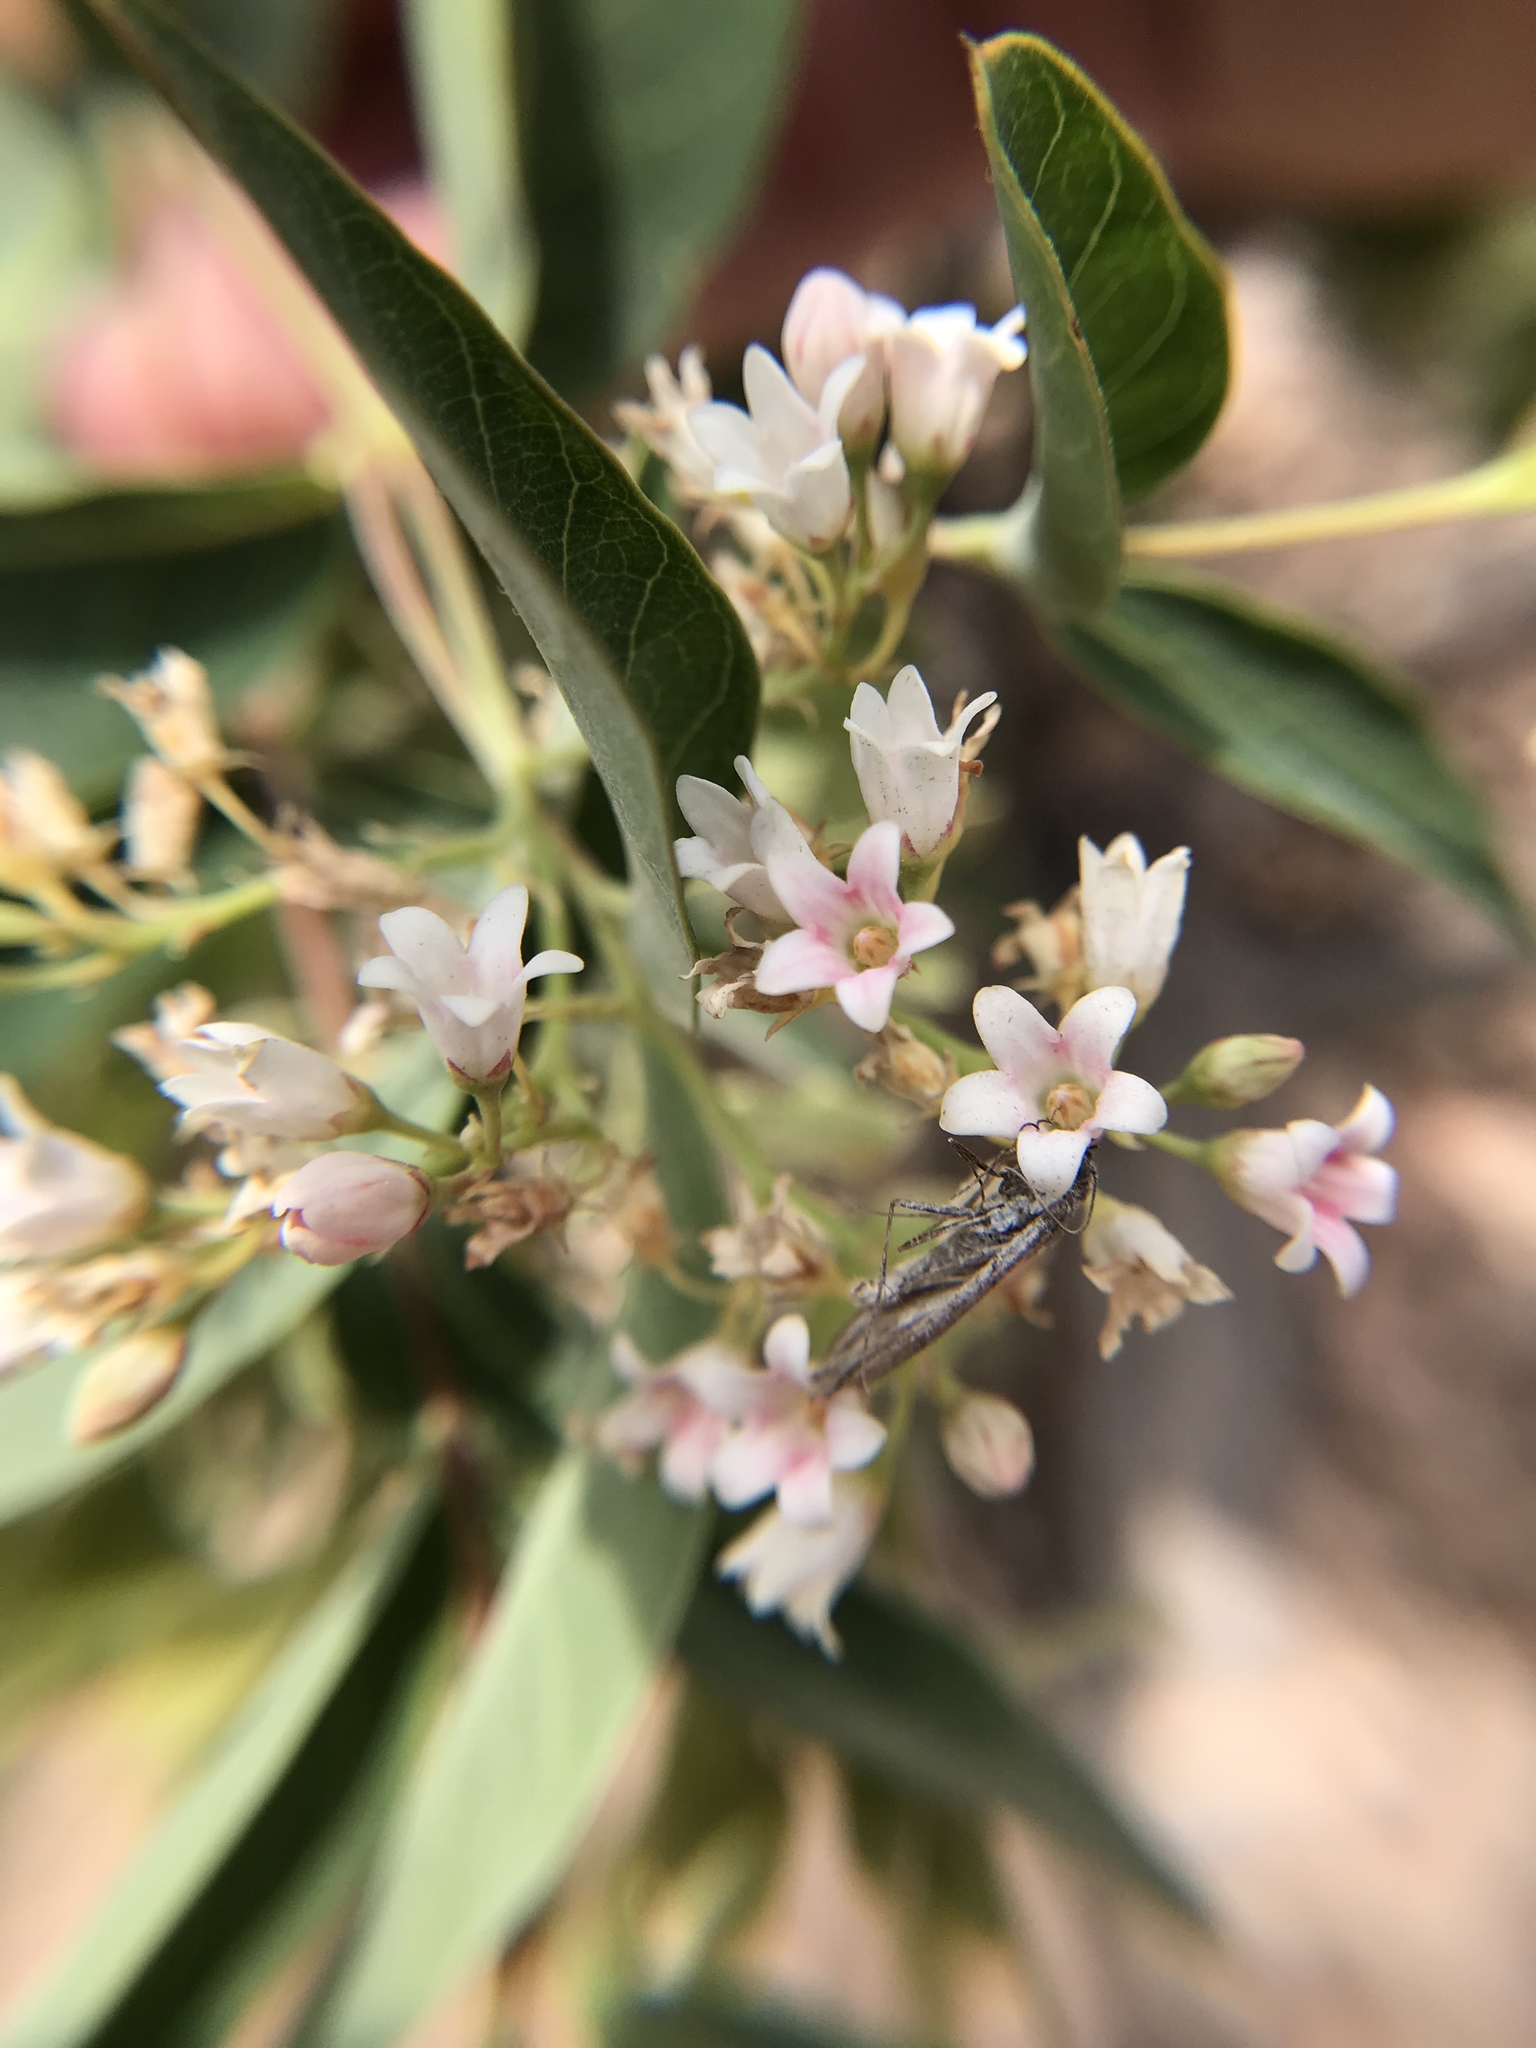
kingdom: Plantae
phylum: Tracheophyta
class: Magnoliopsida
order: Gentianales
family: Apocynaceae
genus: Apocynum
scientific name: Apocynum androsaemifolium
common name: Spreading dogbane
